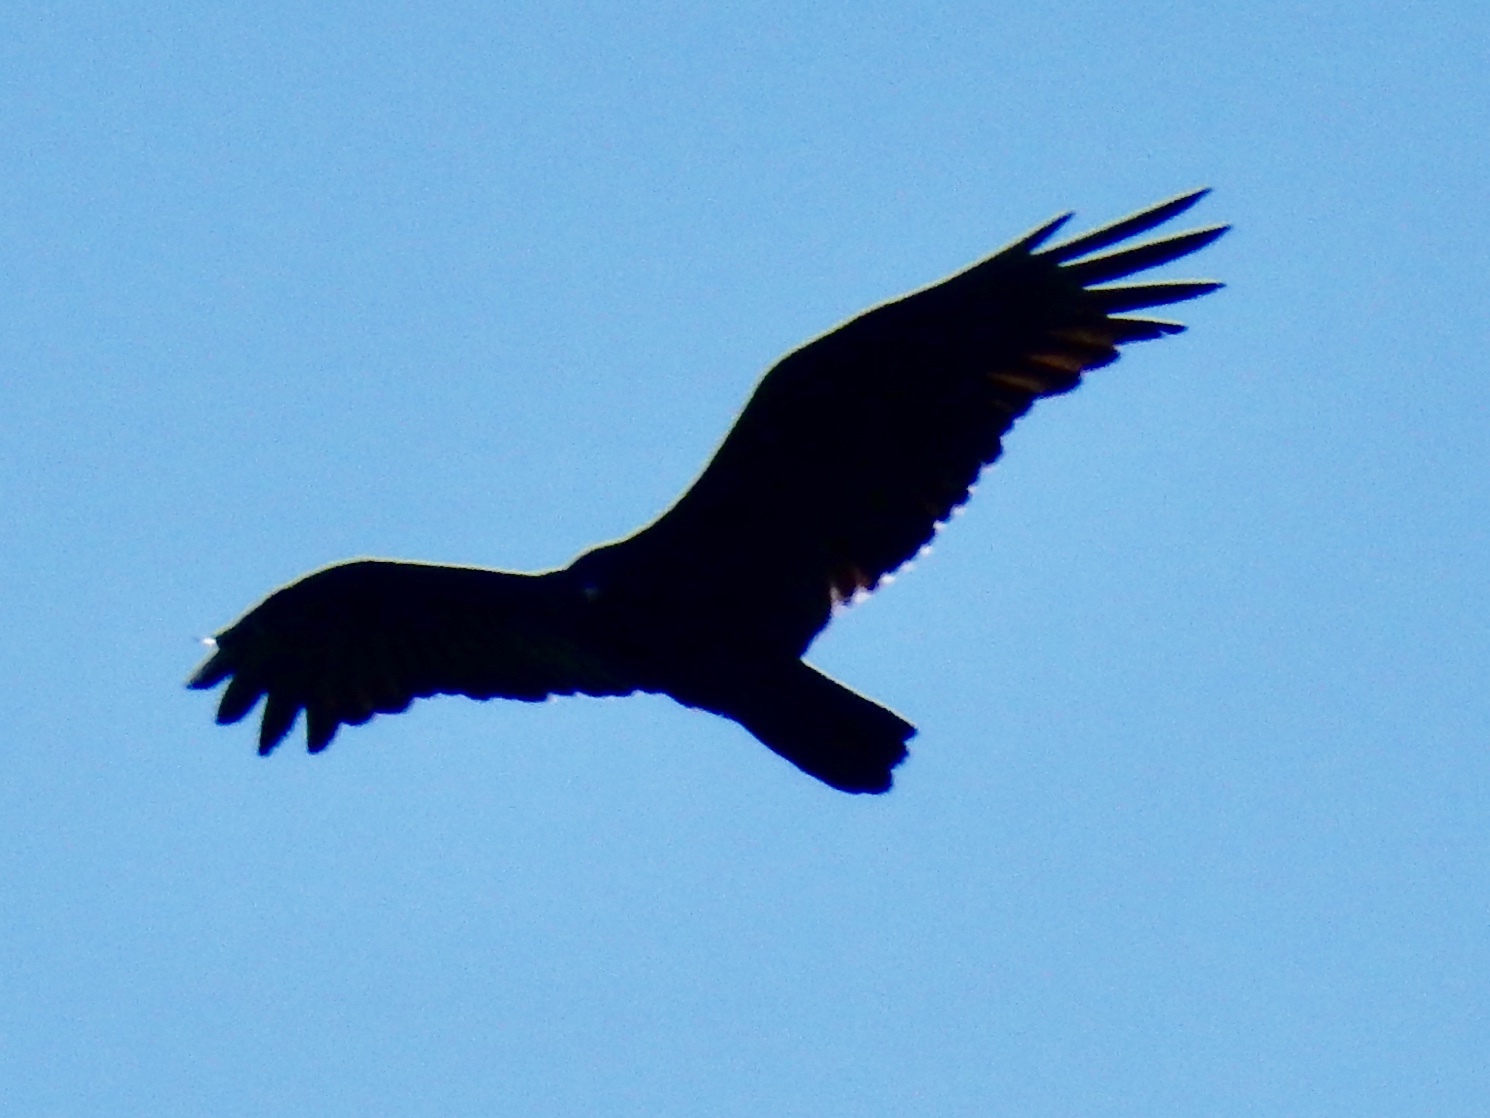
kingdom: Animalia
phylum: Chordata
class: Aves
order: Accipitriformes
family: Cathartidae
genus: Cathartes
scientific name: Cathartes aura
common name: Turkey vulture
